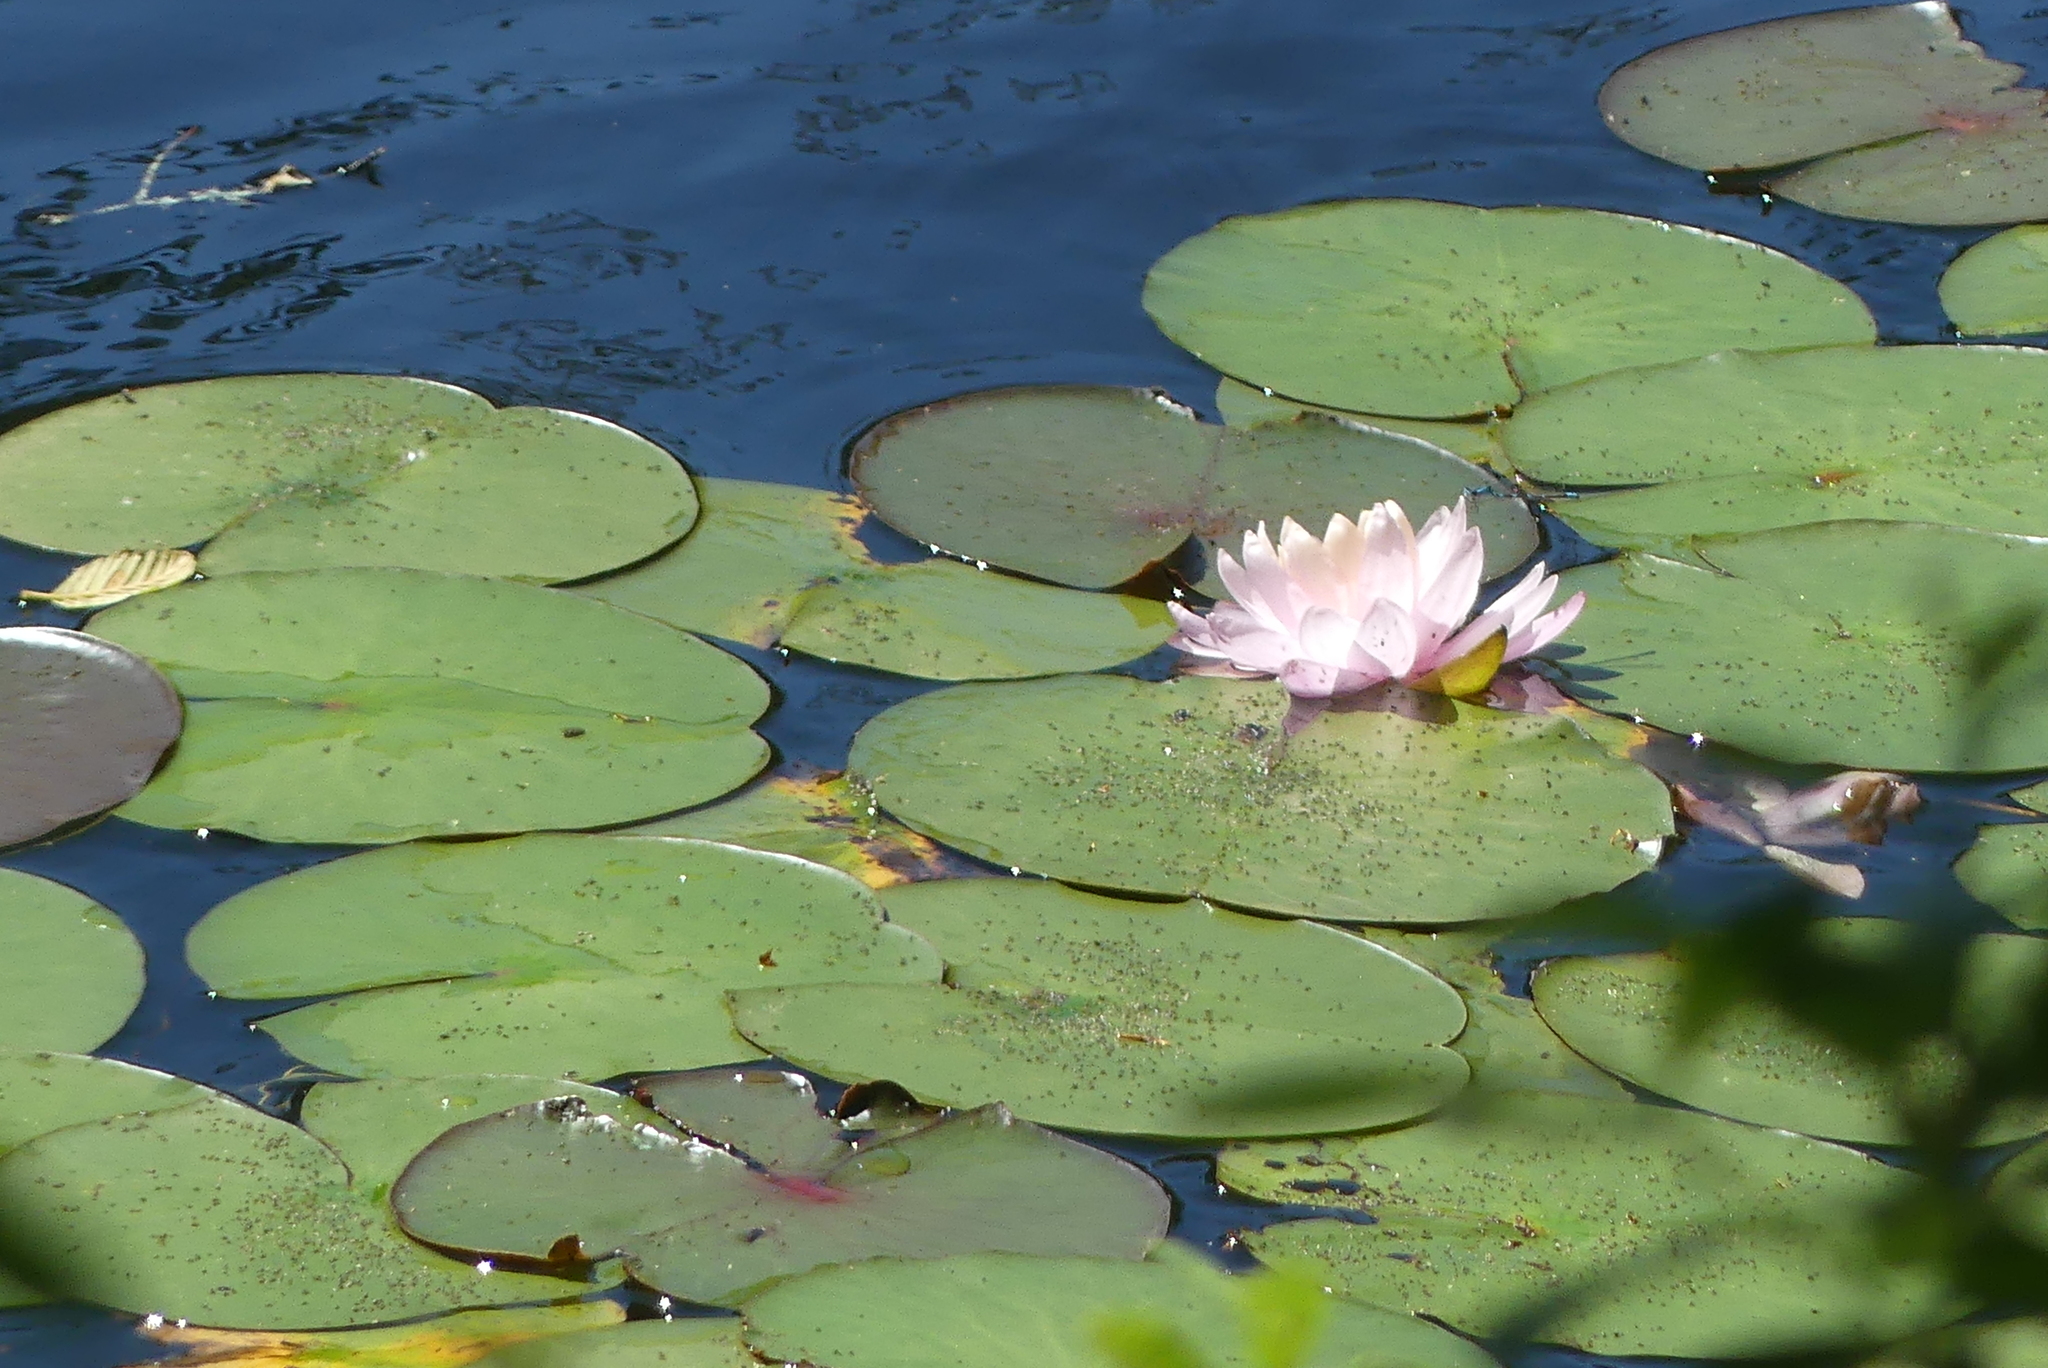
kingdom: Plantae
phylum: Tracheophyta
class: Magnoliopsida
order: Nymphaeales
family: Nymphaeaceae
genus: Nymphaea
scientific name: Nymphaea odorata
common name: Fragrant water-lily
